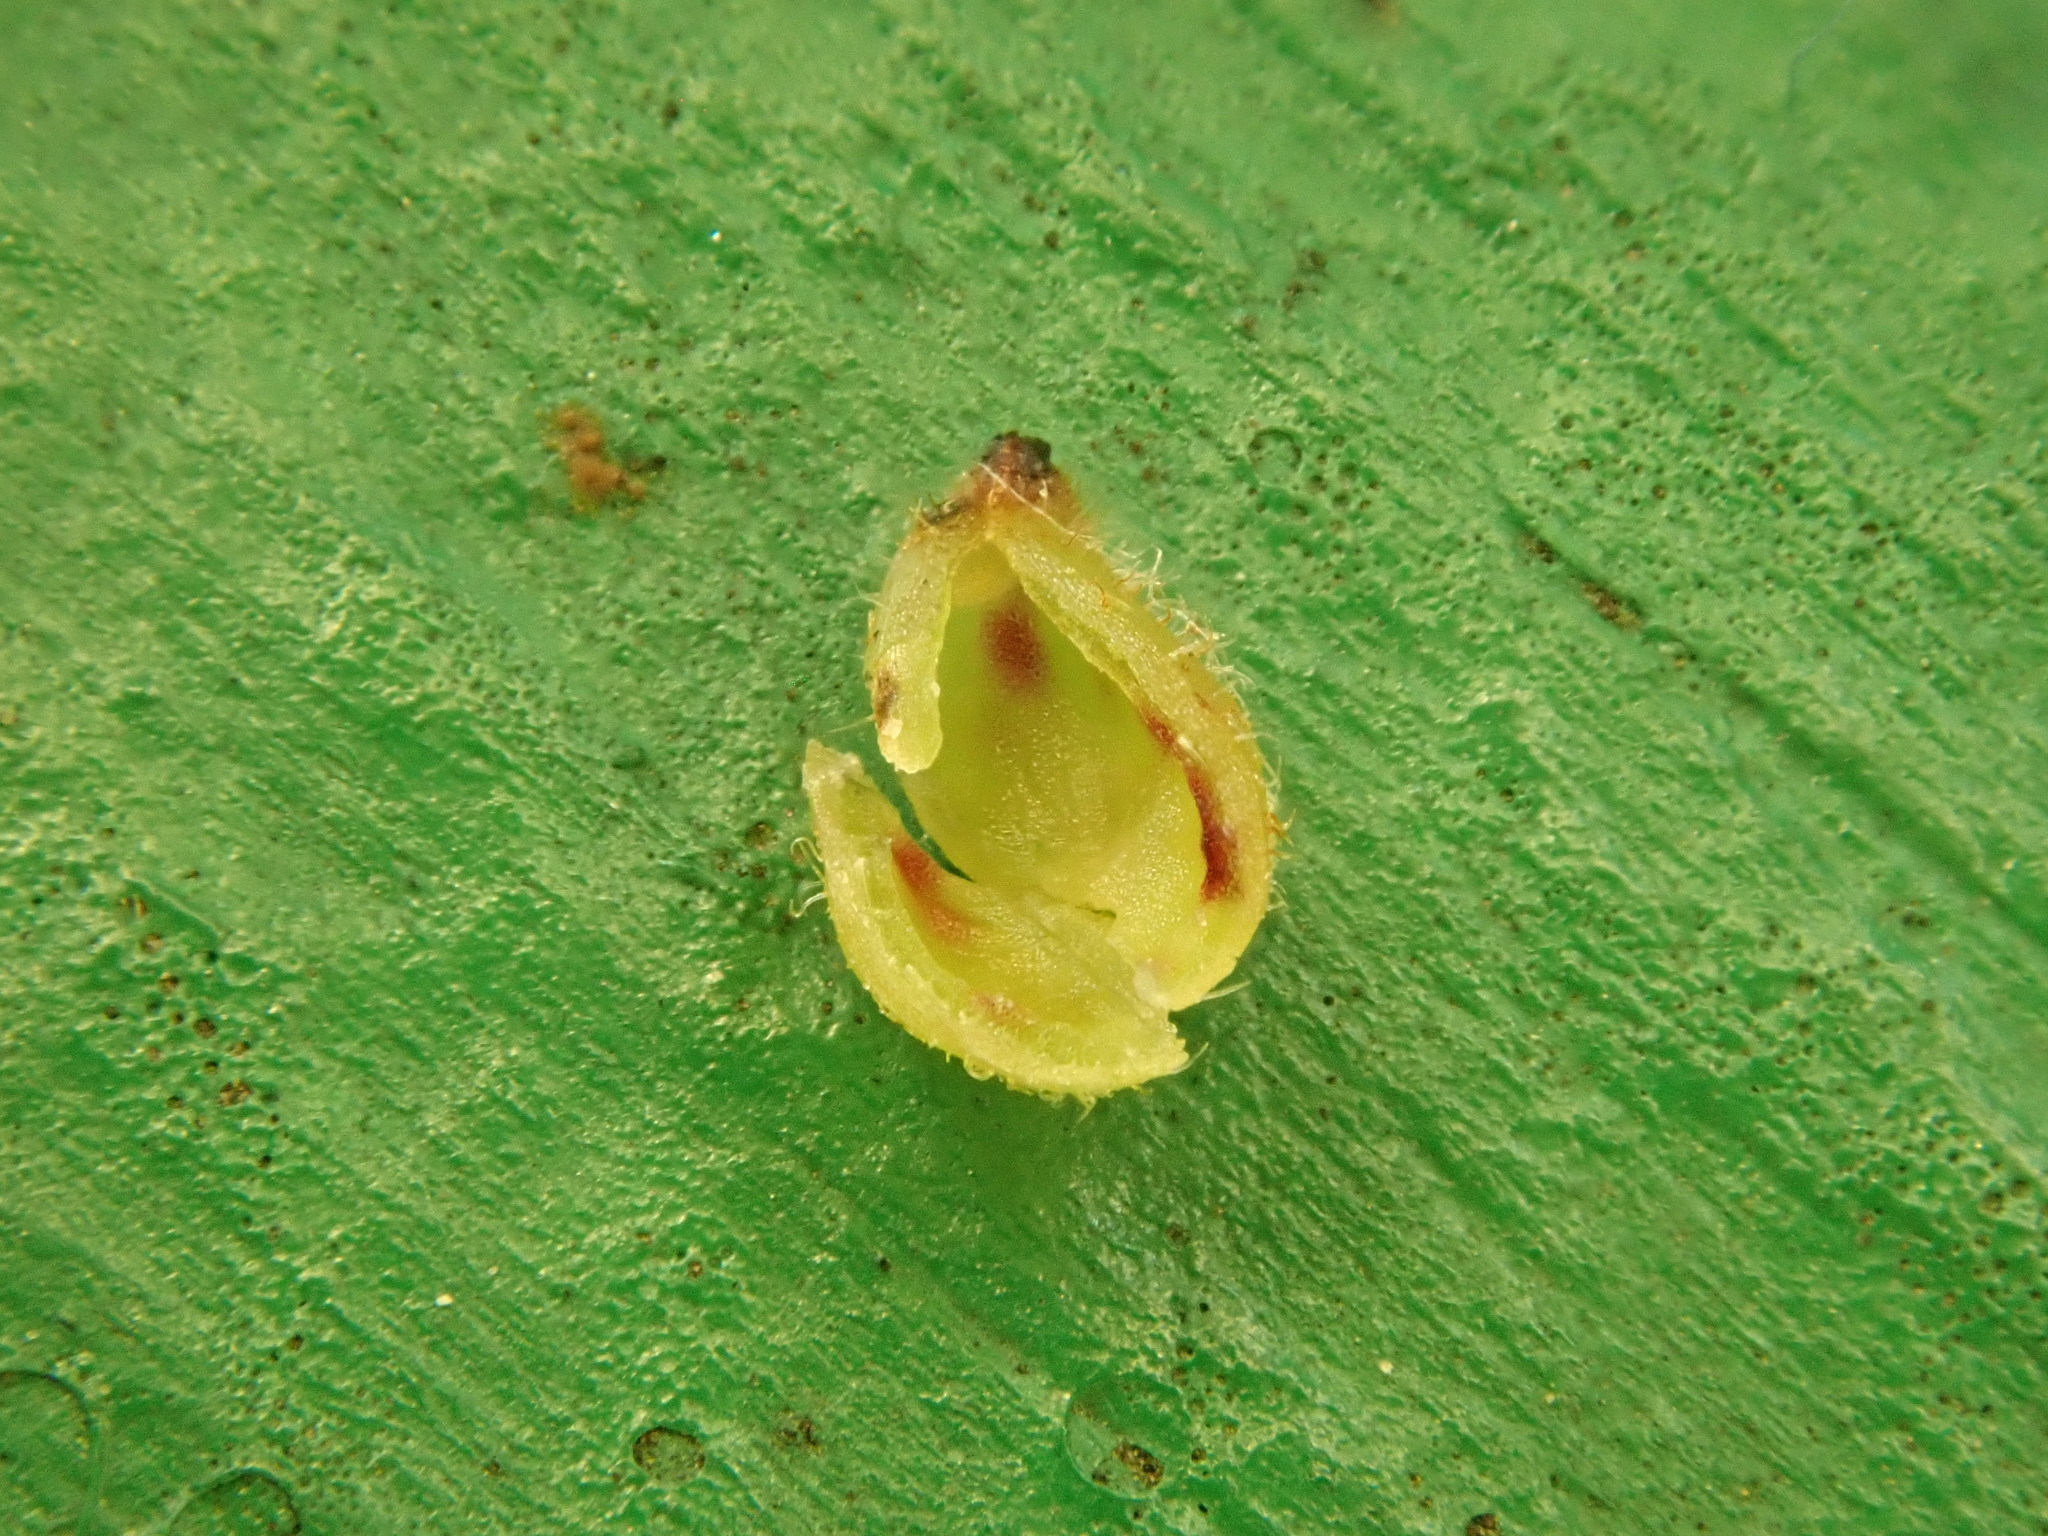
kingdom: Animalia
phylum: Arthropoda
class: Insecta
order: Diptera
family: Cecidomyiidae
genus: Caryomyia
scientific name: Caryomyia eumaris
